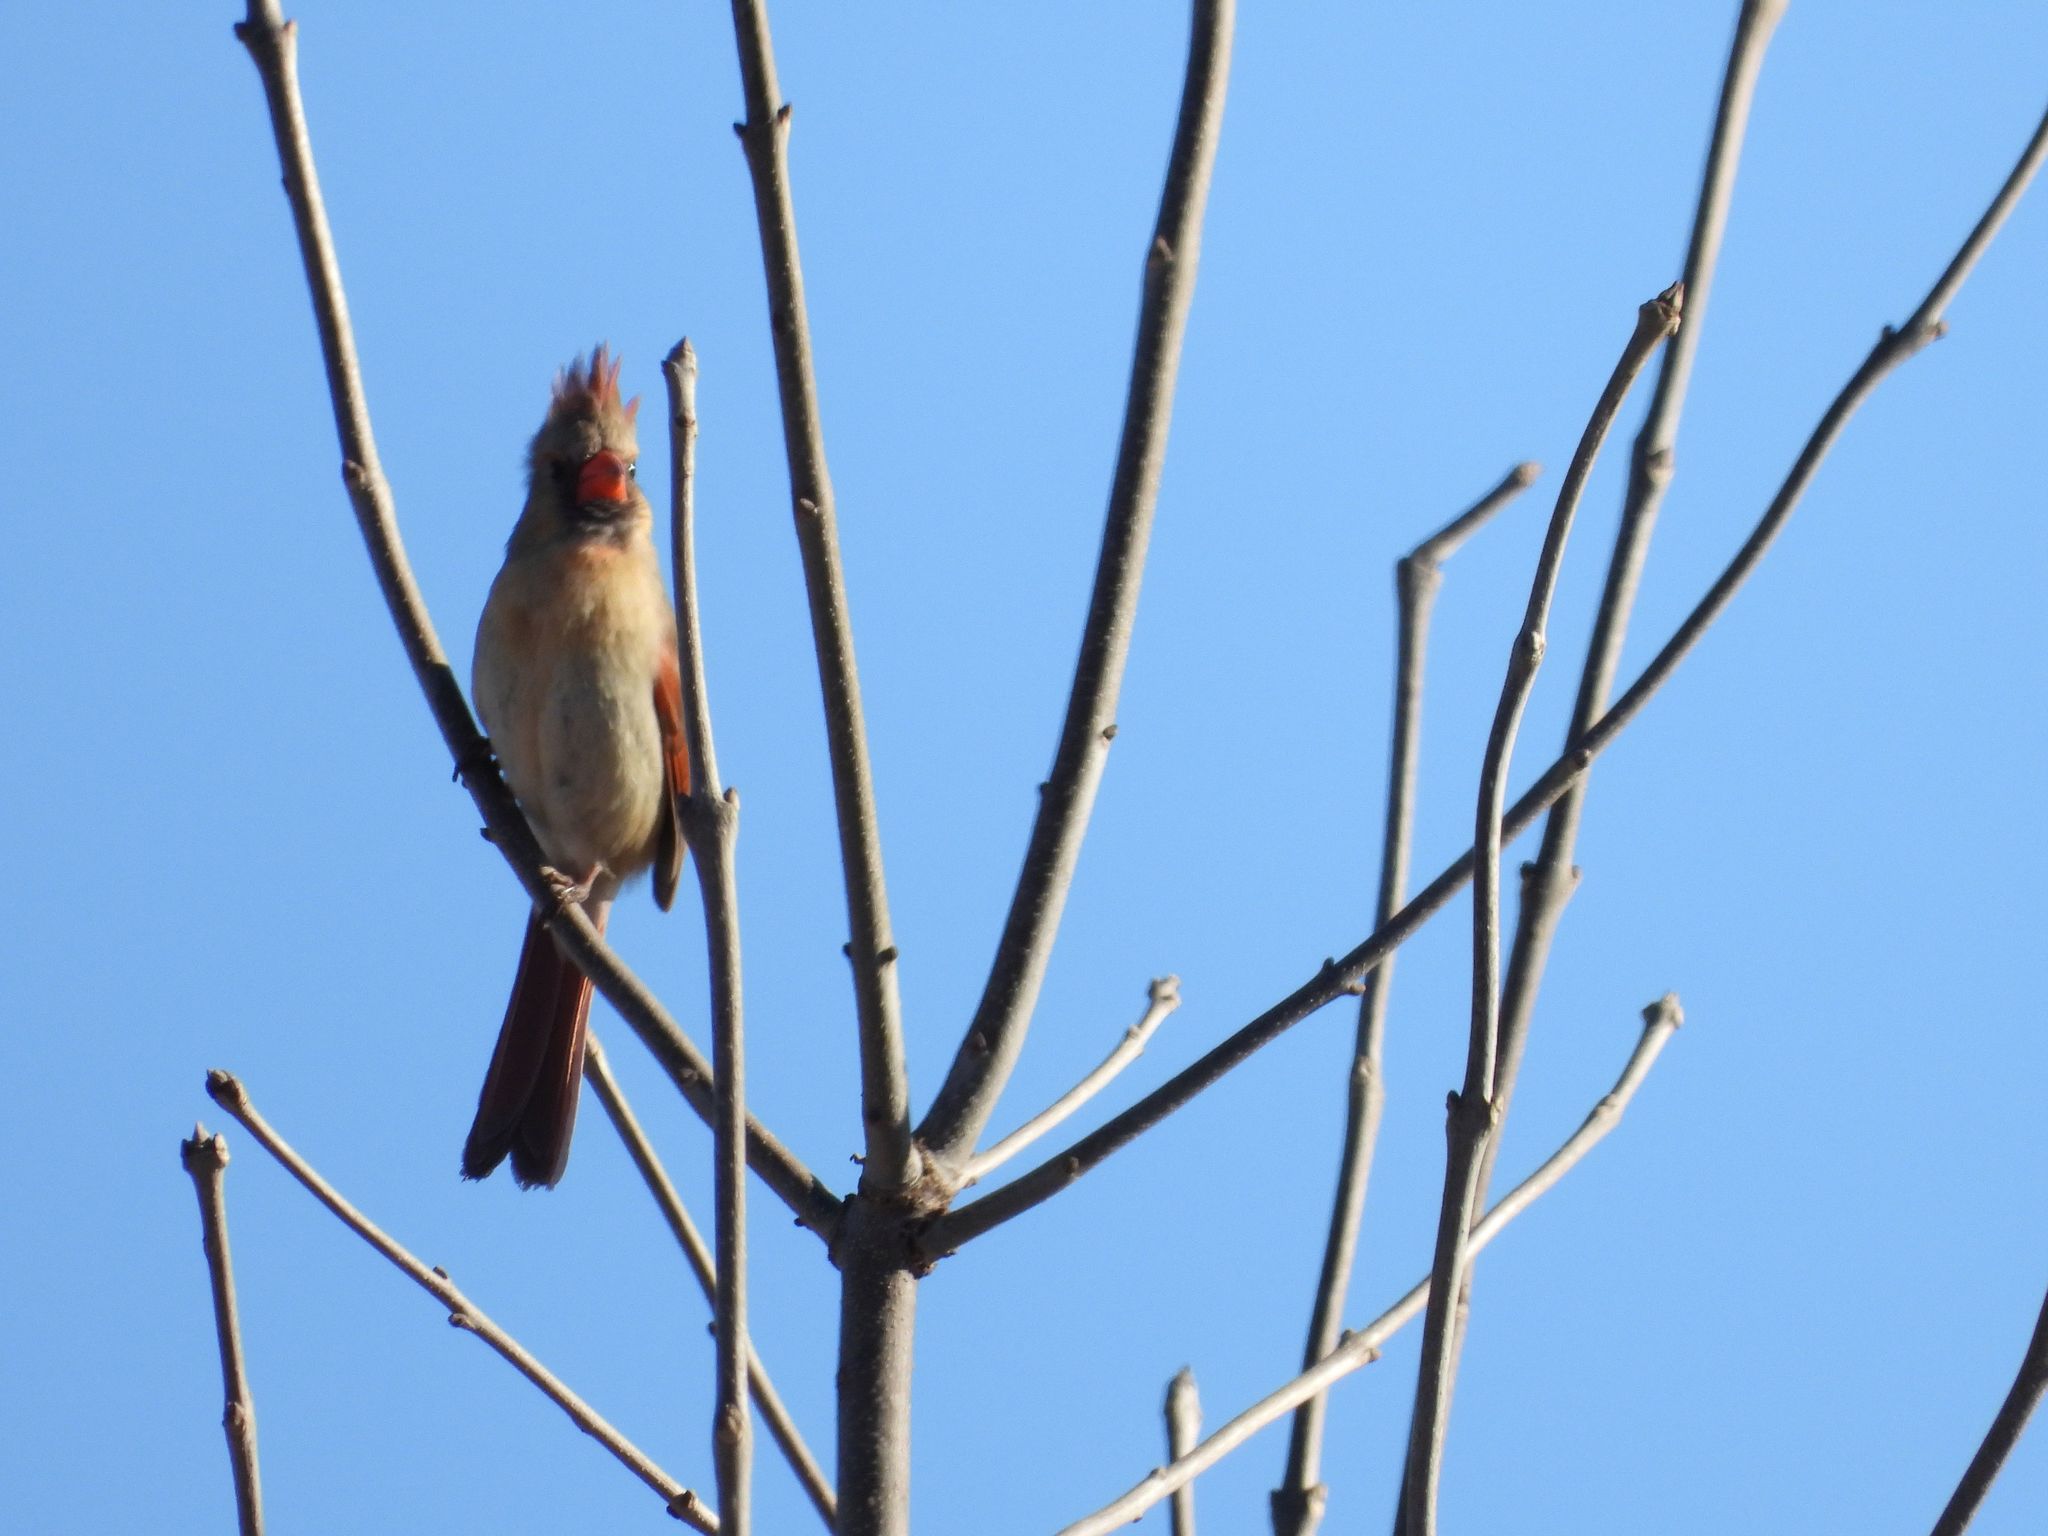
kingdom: Animalia
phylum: Chordata
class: Aves
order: Passeriformes
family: Cardinalidae
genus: Cardinalis
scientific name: Cardinalis cardinalis
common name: Northern cardinal
